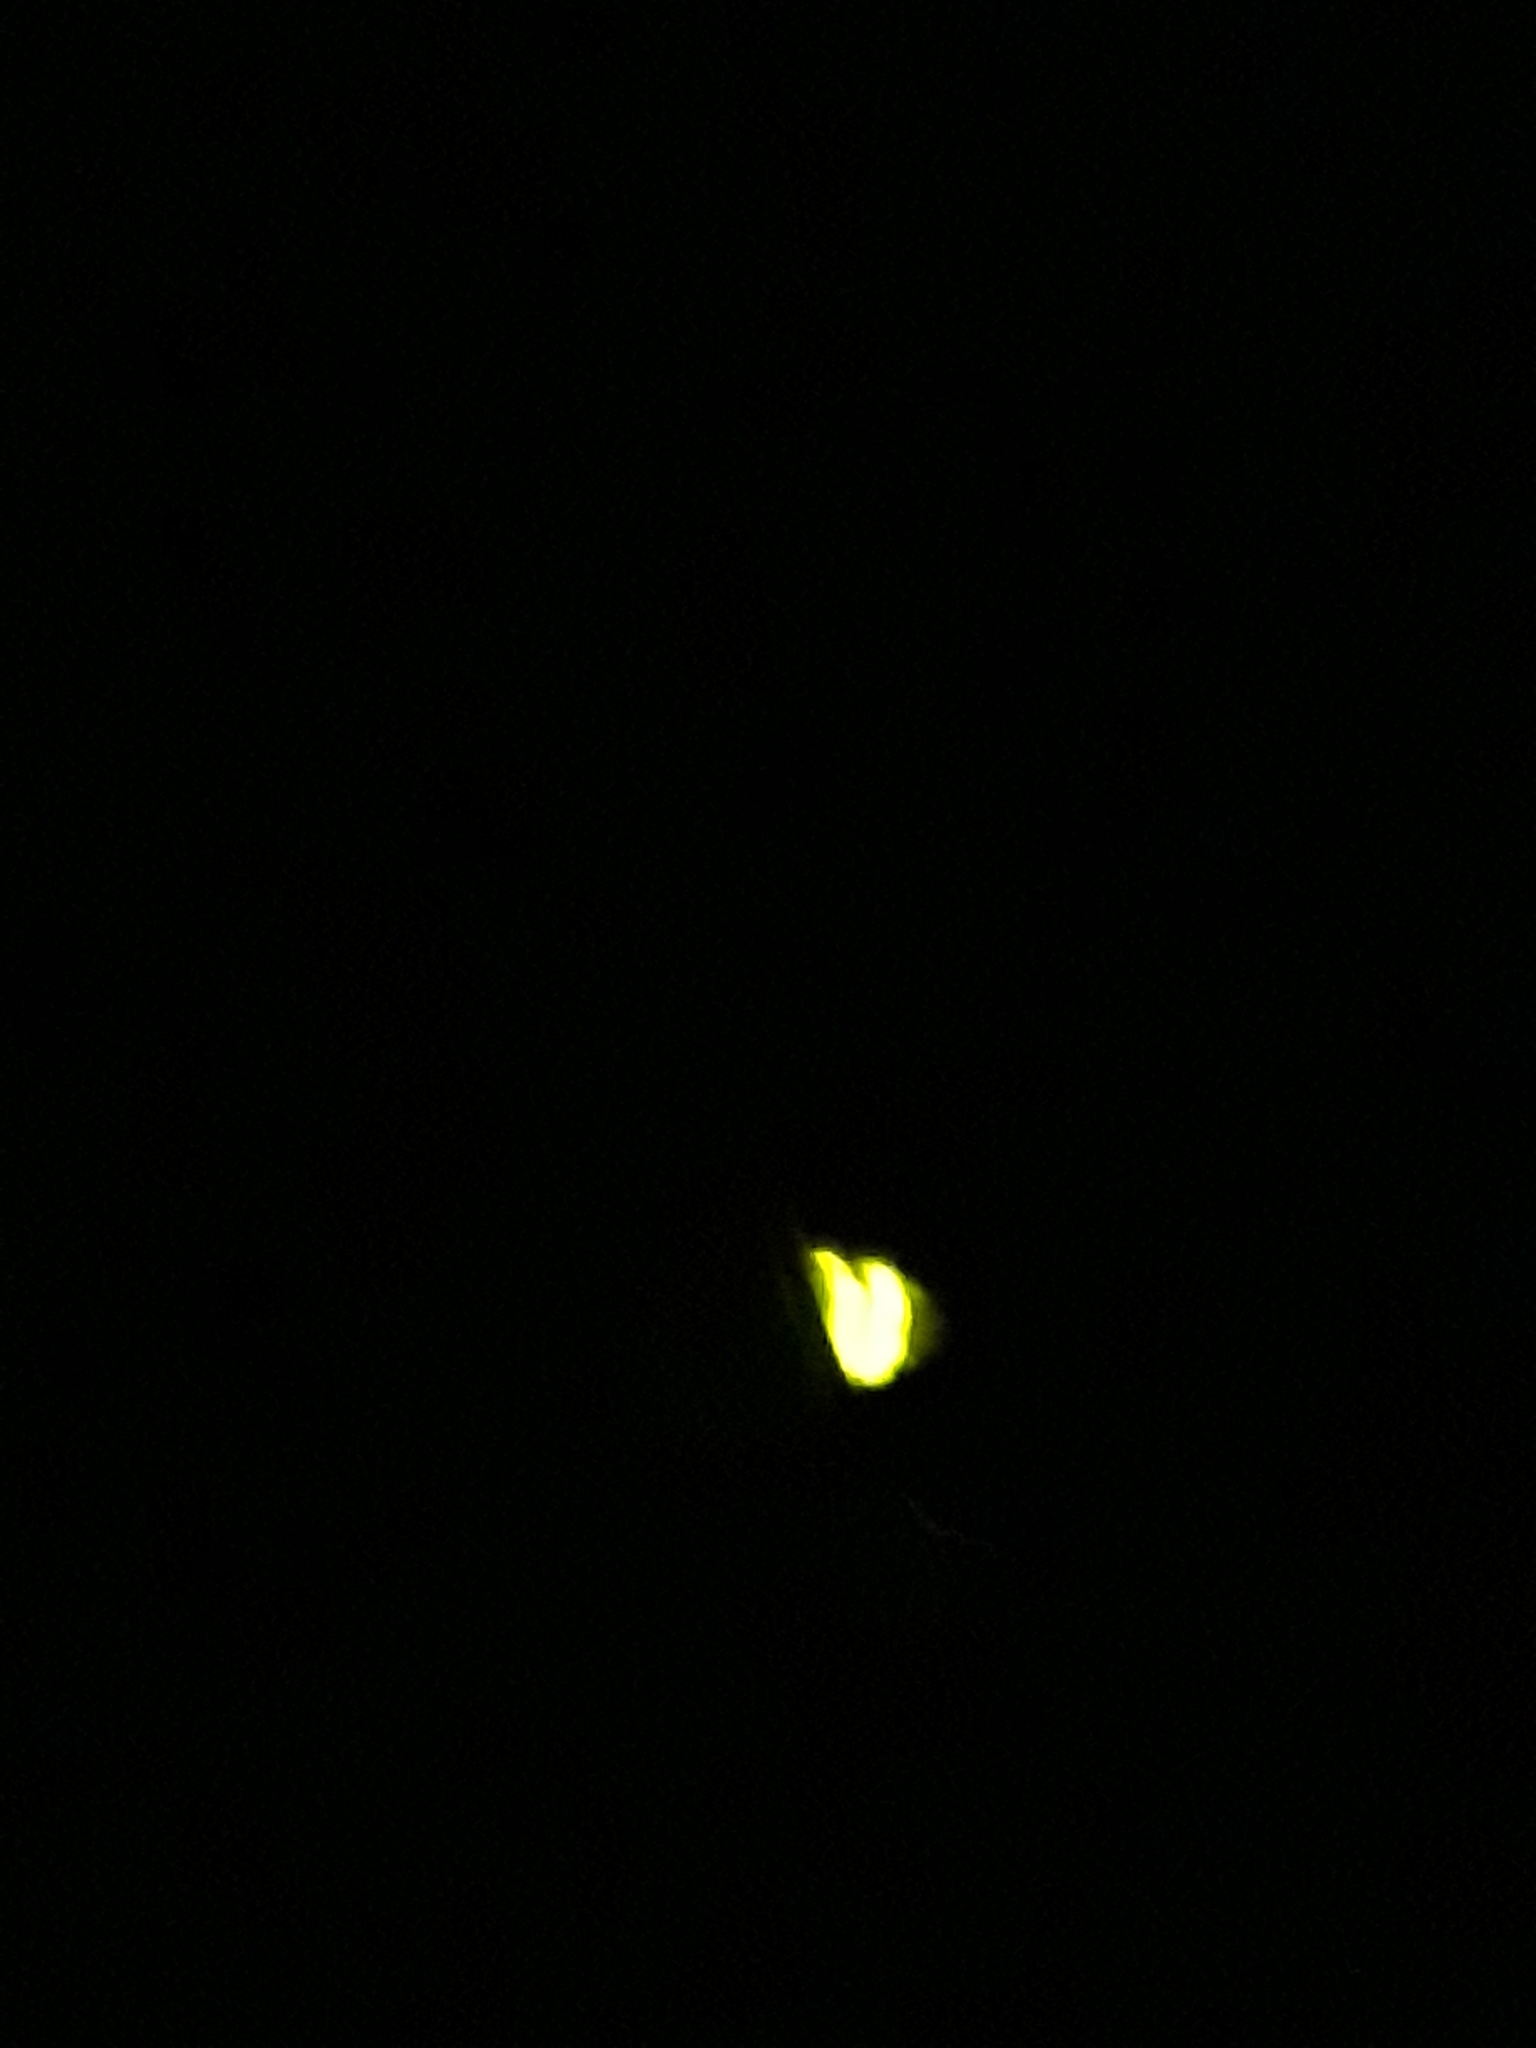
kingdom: Animalia
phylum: Arthropoda
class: Insecta
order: Coleoptera
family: Lampyridae
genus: Lampyris
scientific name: Lampyris noctiluca
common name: Glow-worm
